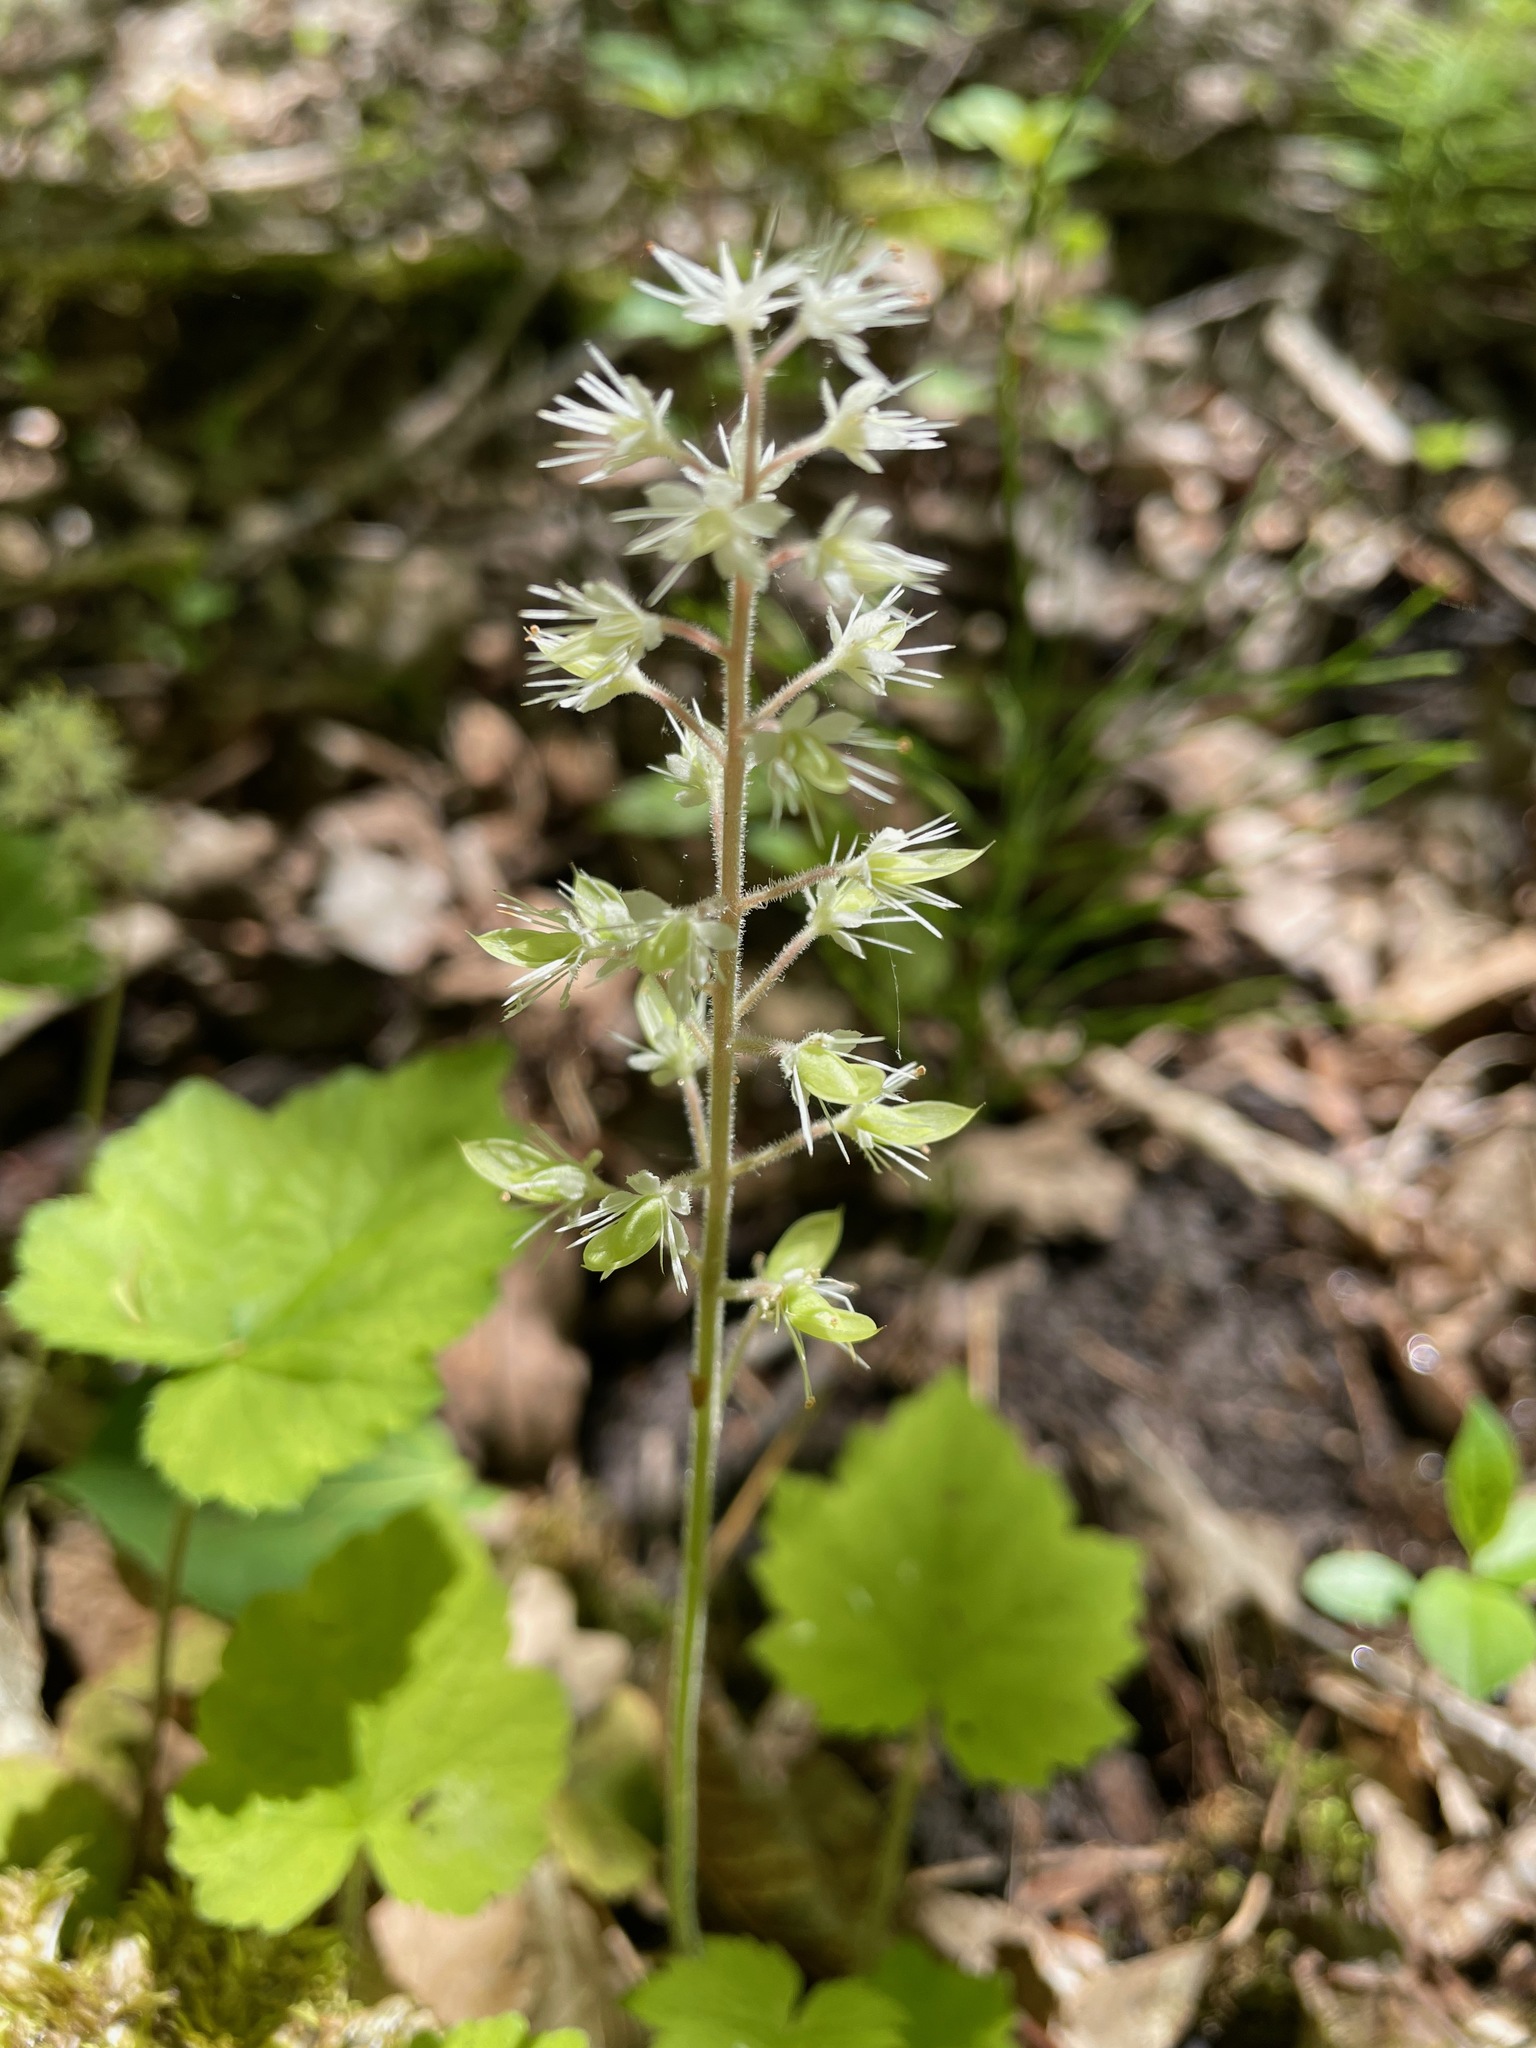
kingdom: Plantae
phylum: Tracheophyta
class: Magnoliopsida
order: Saxifragales
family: Saxifragaceae
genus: Tiarella
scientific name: Tiarella stolonifera
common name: Stoloniferous foamflower
